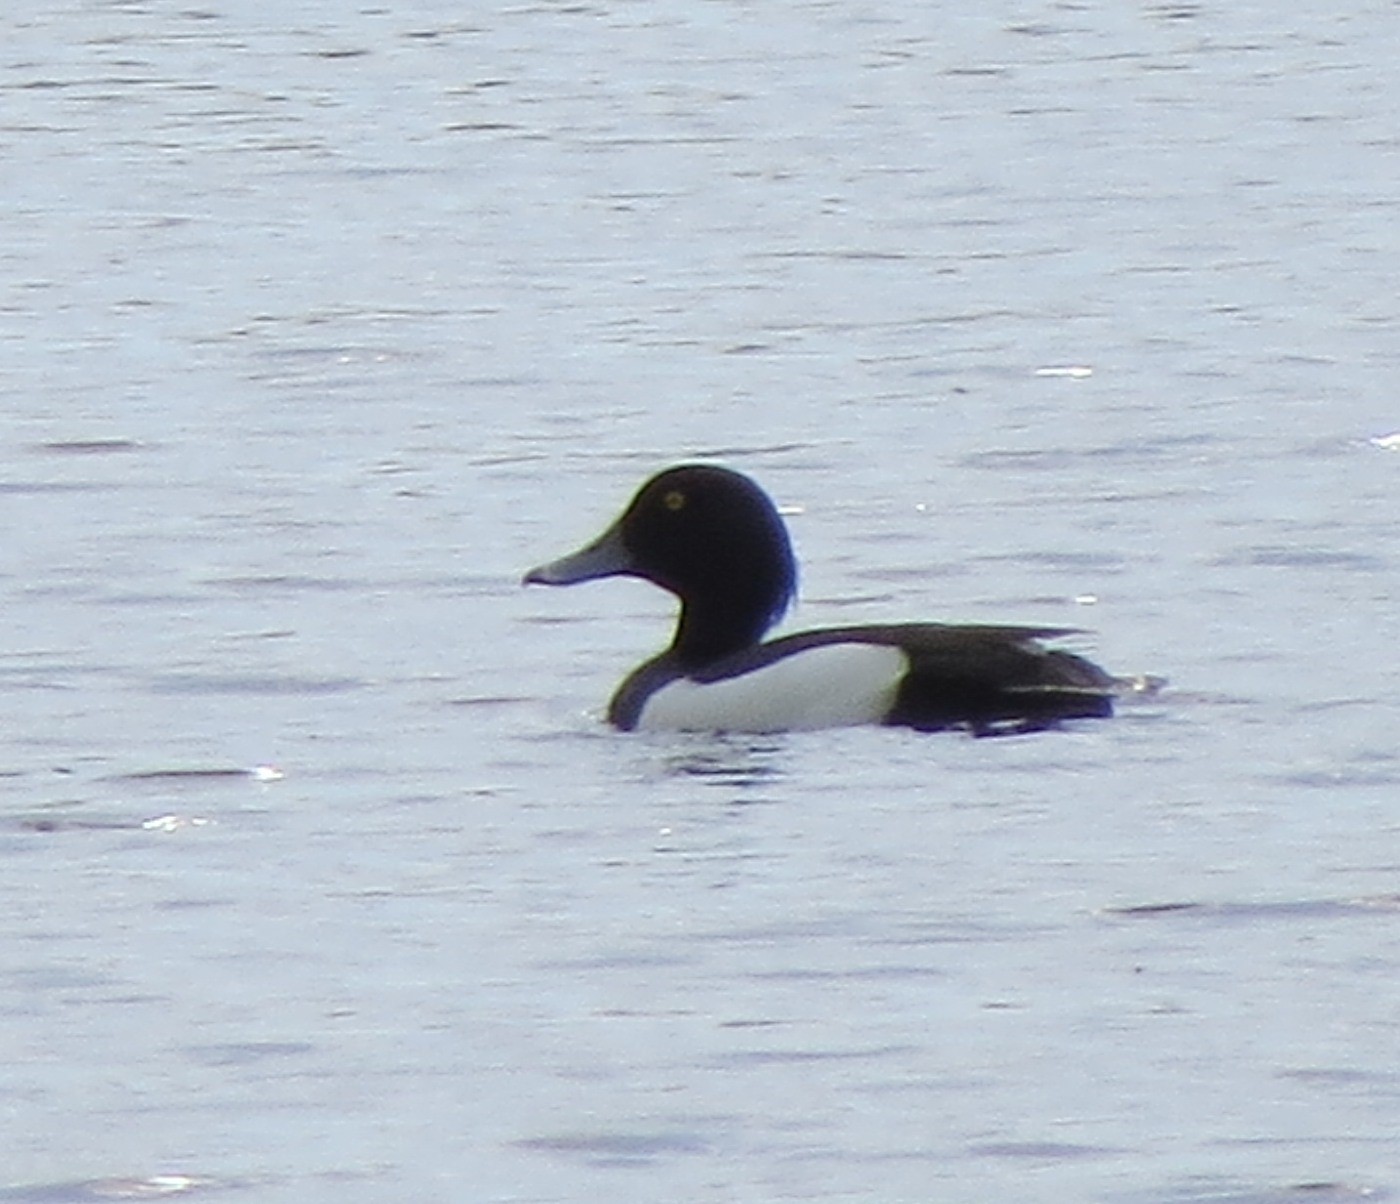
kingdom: Animalia
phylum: Chordata
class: Aves
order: Anseriformes
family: Anatidae
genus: Aythya
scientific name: Aythya fuligula
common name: Tufted duck
